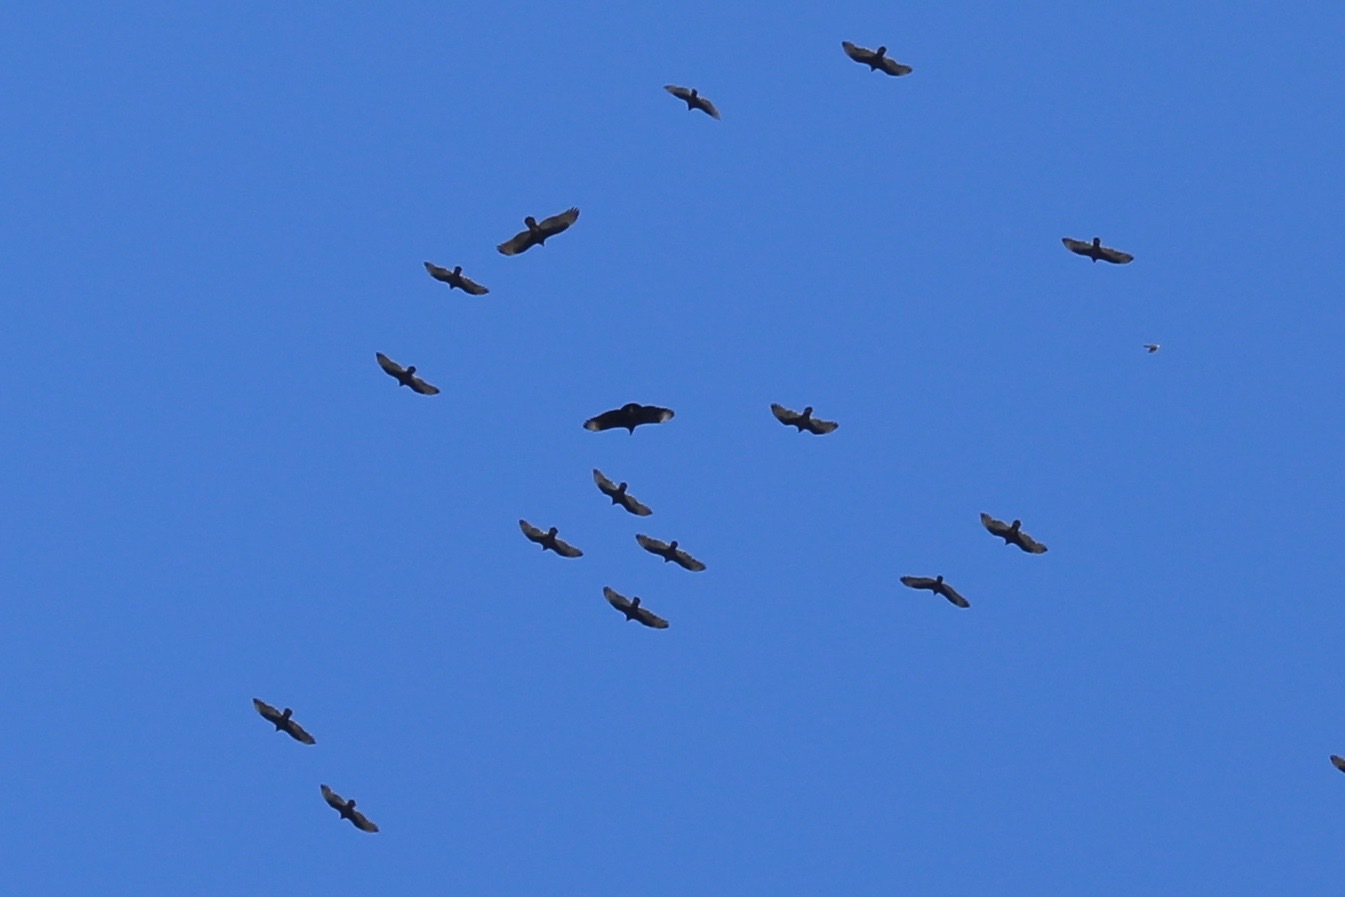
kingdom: Animalia
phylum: Chordata
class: Aves
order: Accipitriformes
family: Cathartidae
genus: Coragyps
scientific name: Coragyps atratus
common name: Black vulture
